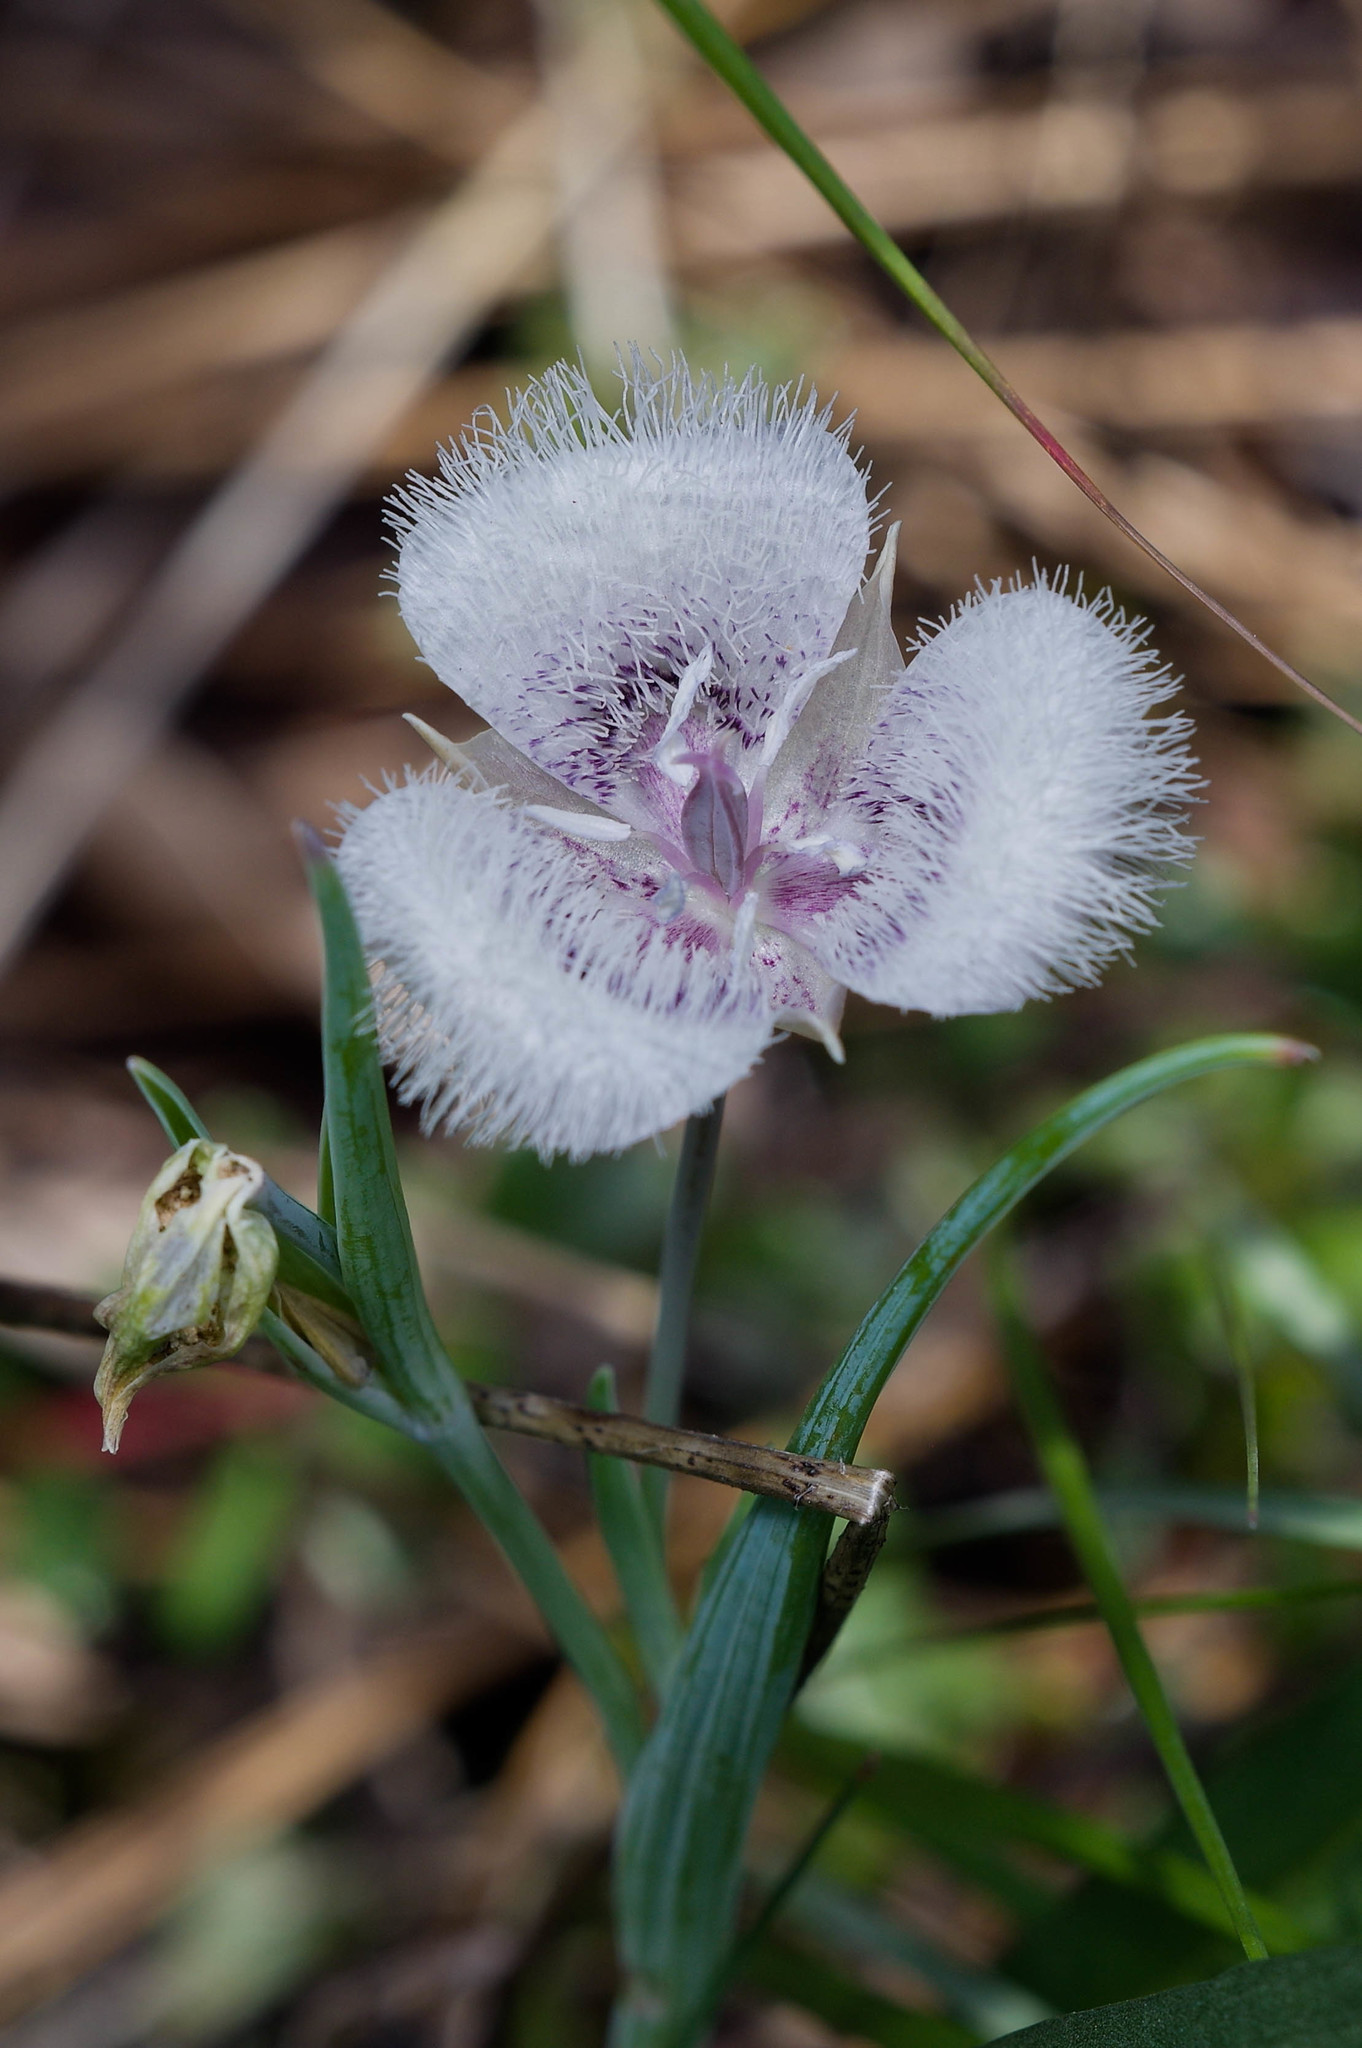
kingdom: Plantae
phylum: Tracheophyta
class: Liliopsida
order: Liliales
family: Liliaceae
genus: Calochortus
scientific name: Calochortus tolmiei
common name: Pussy-ears
